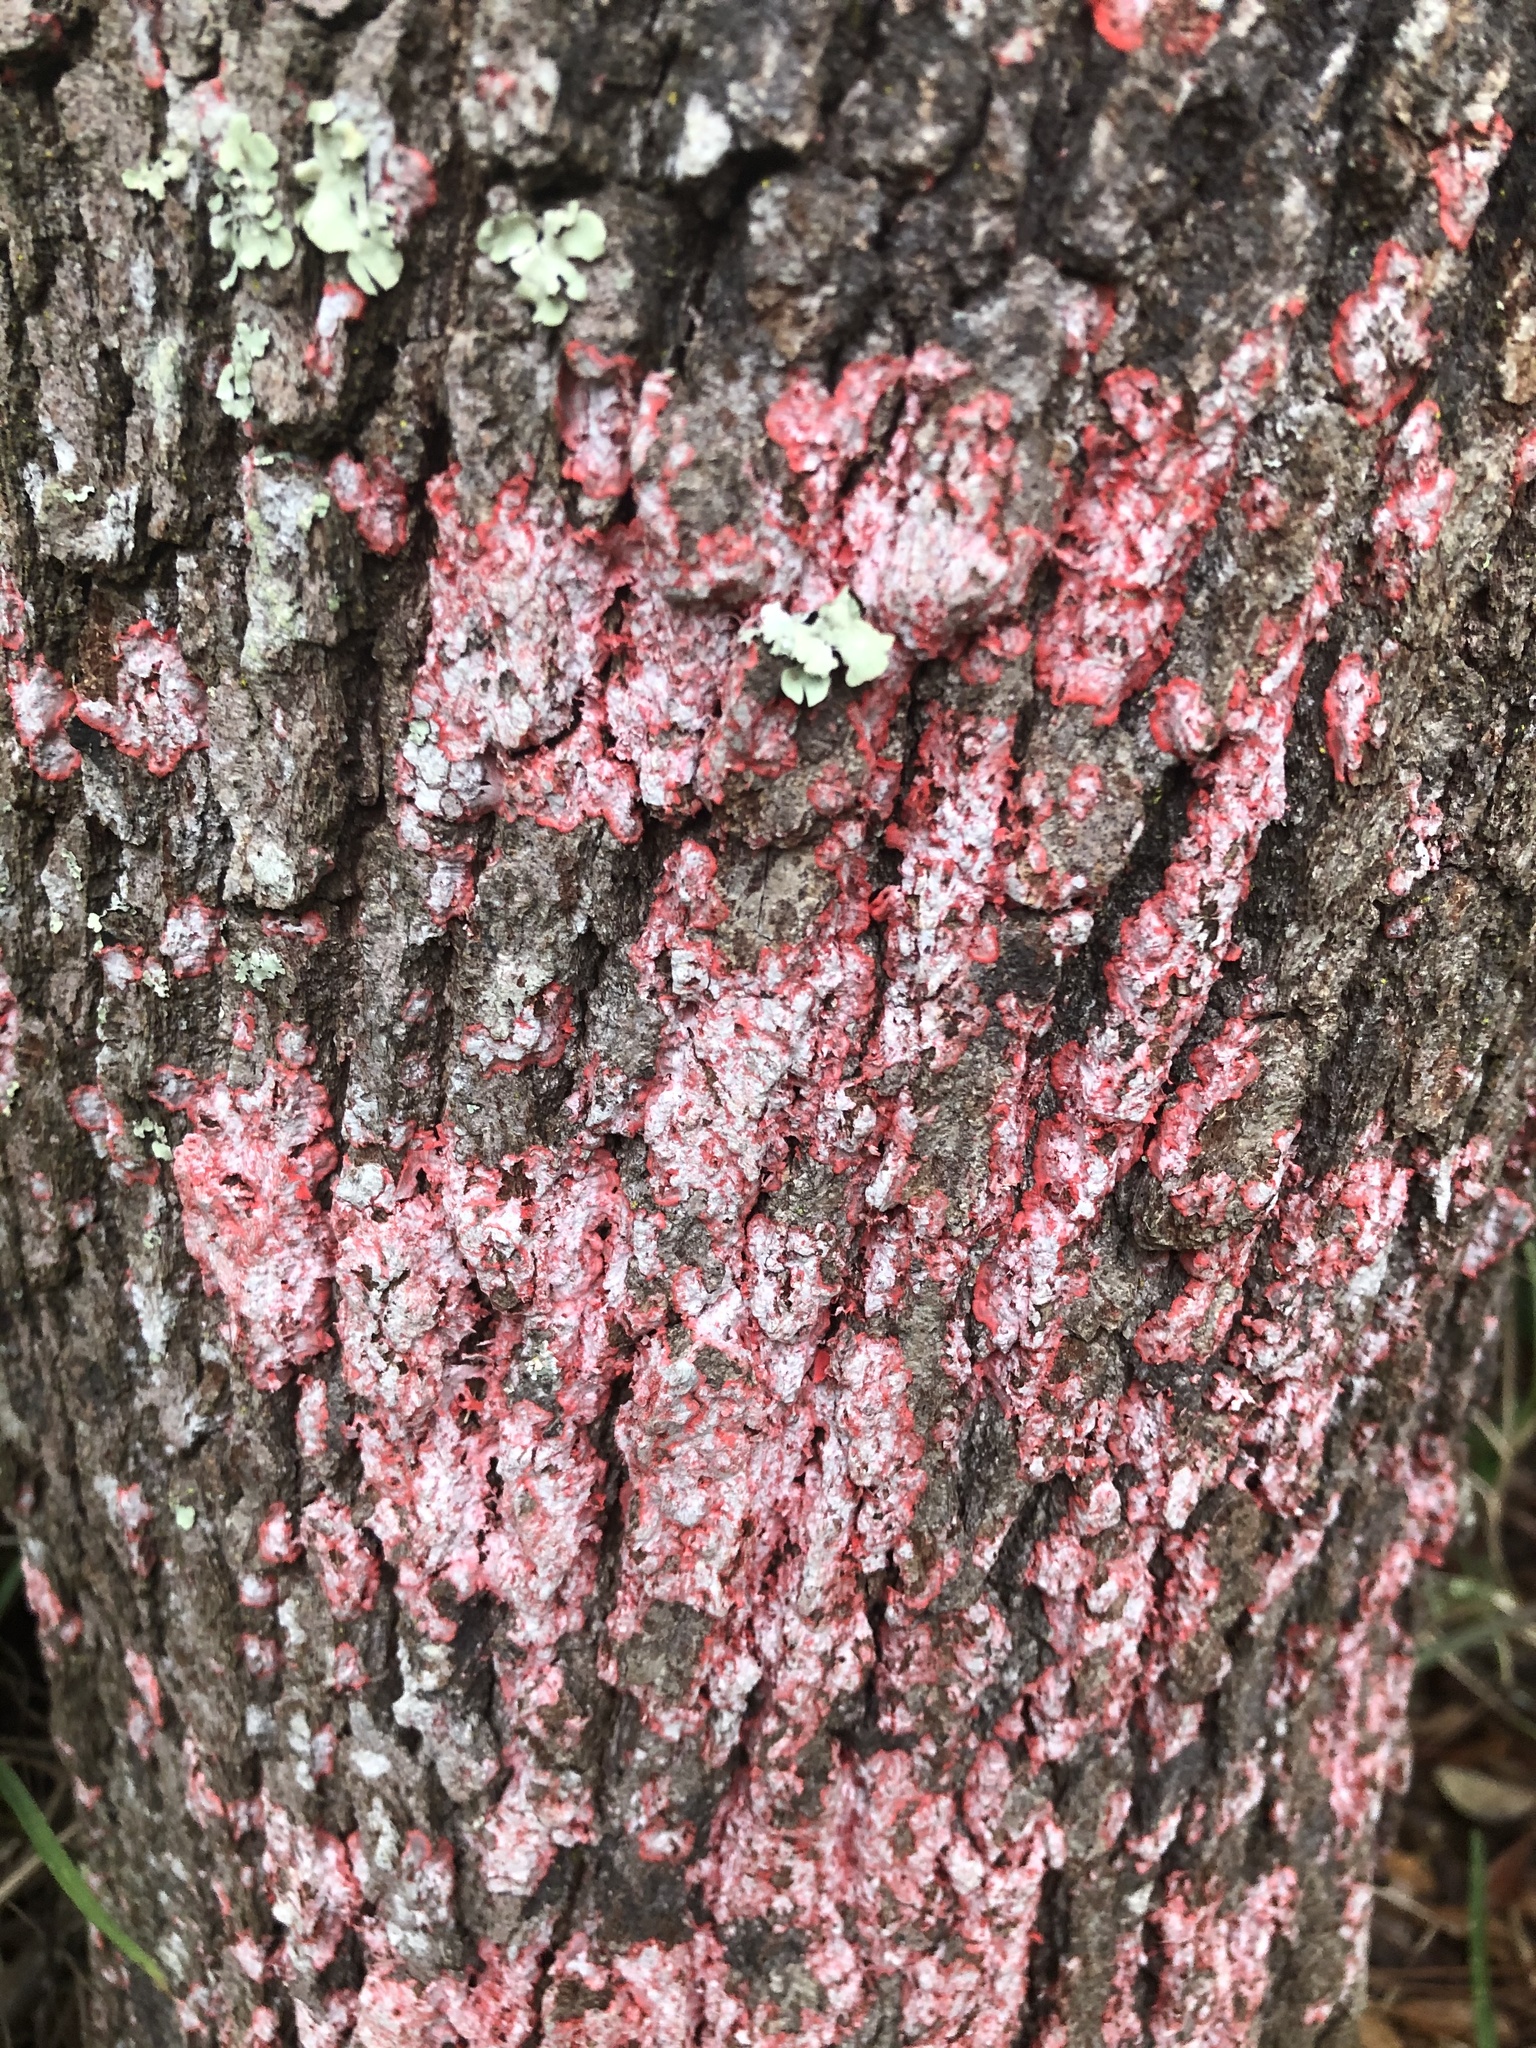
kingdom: Fungi
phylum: Ascomycota
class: Arthoniomycetes
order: Arthoniales
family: Arthoniaceae
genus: Herpothallon
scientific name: Herpothallon rubrocinctum
